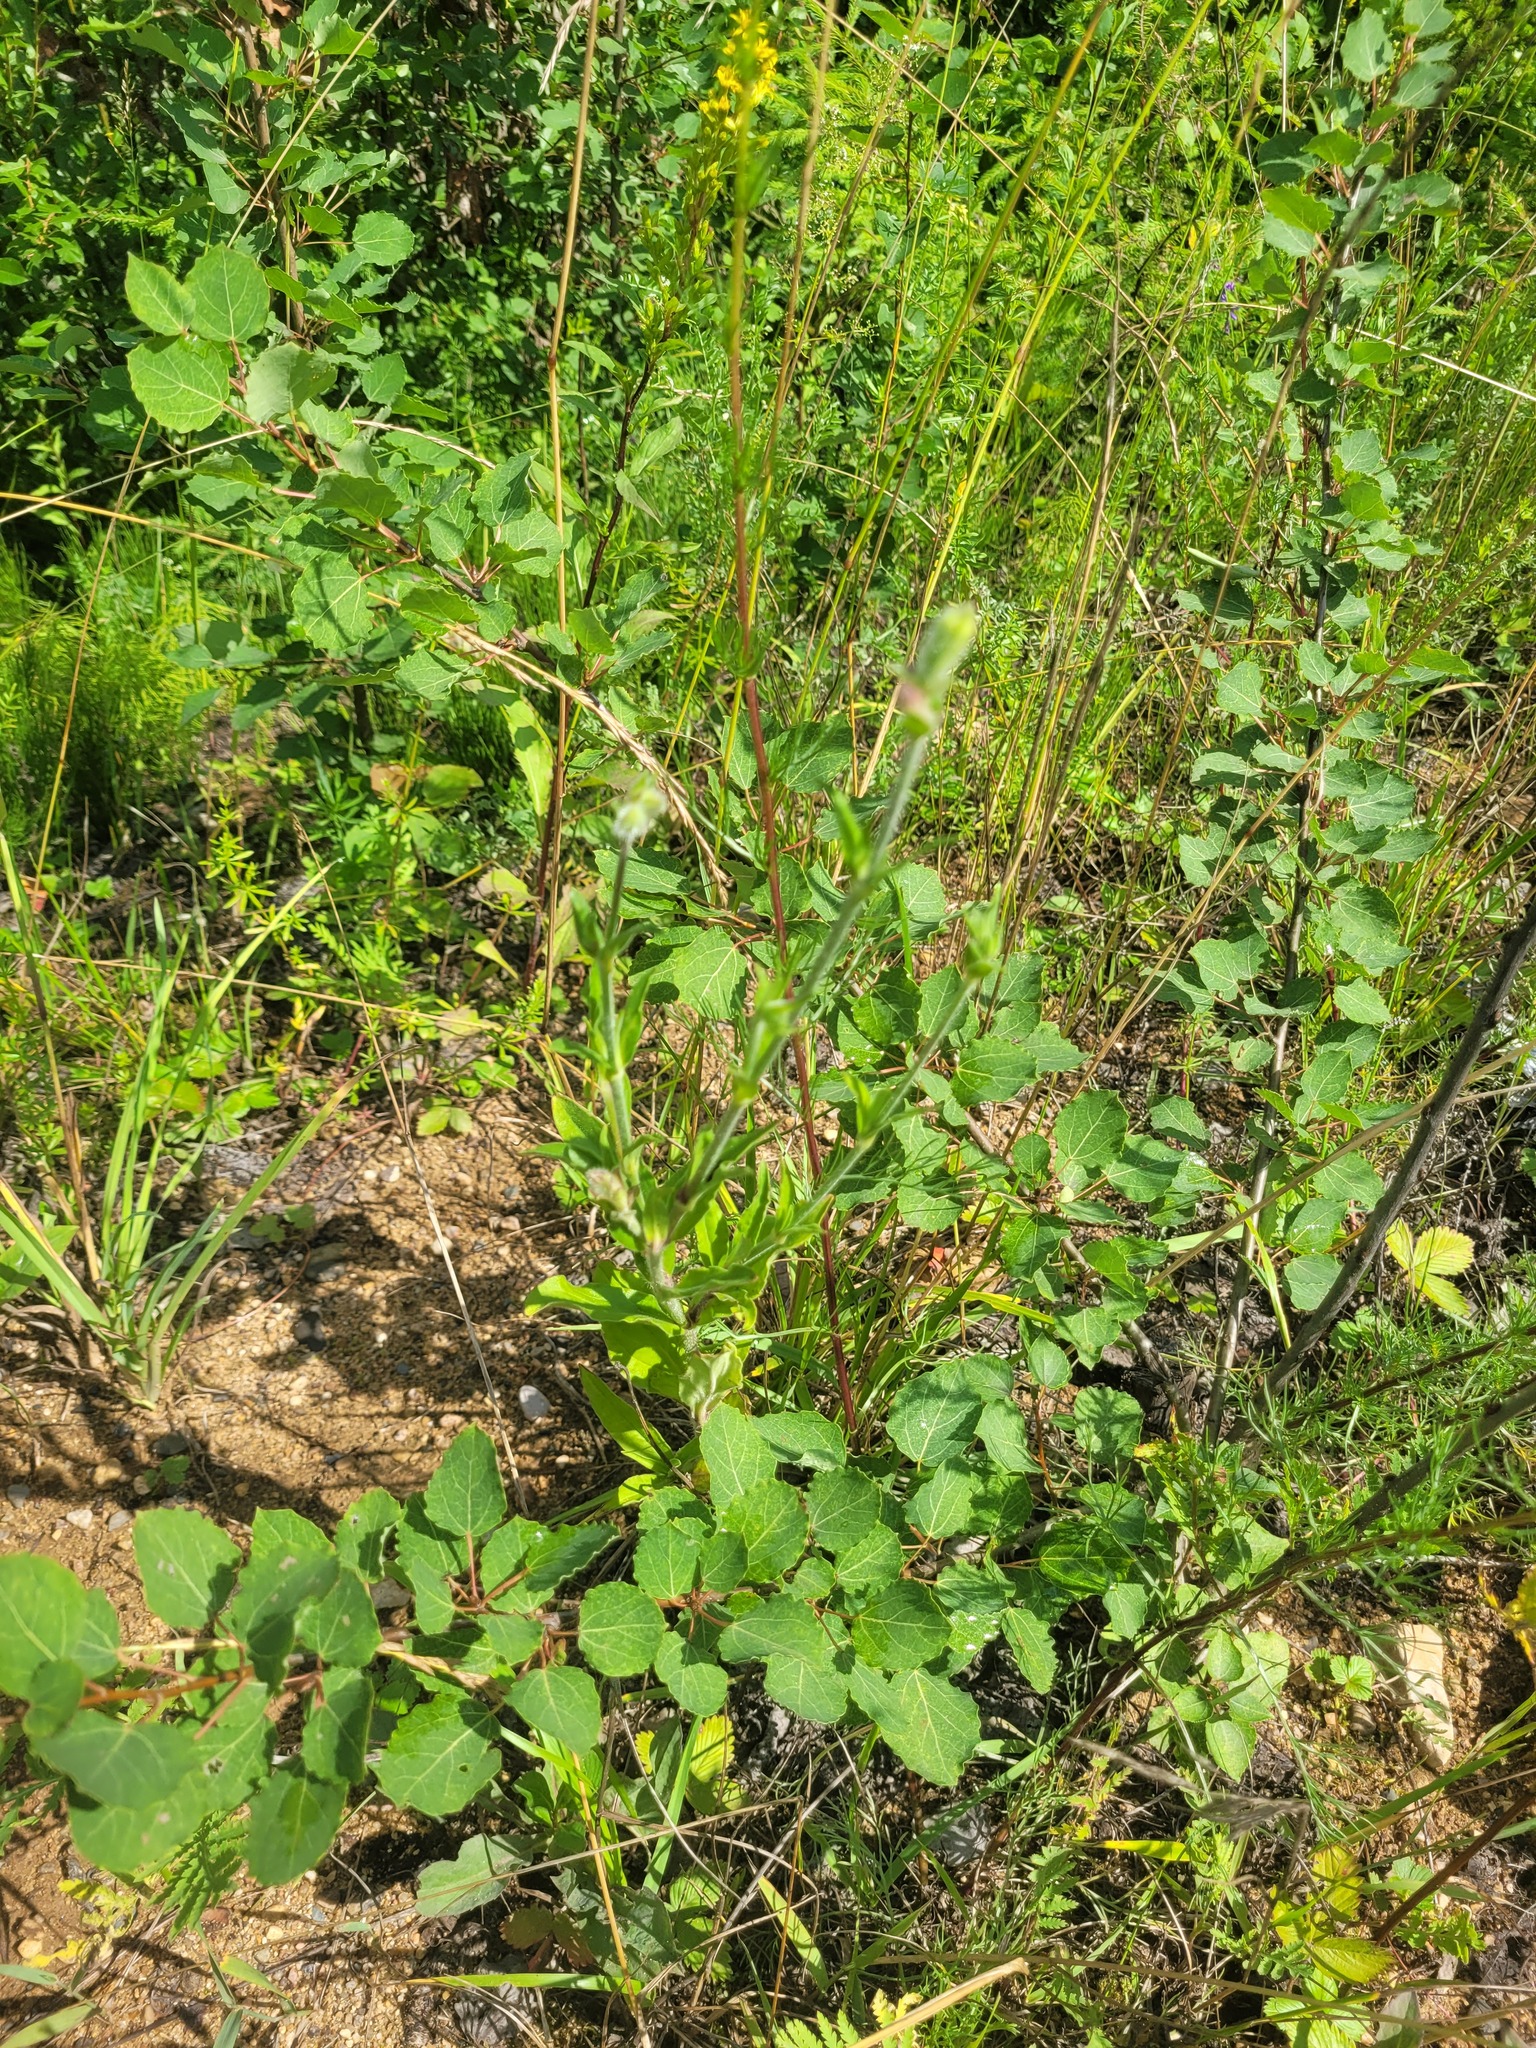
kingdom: Plantae
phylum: Tracheophyta
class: Magnoliopsida
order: Caryophyllales
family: Caryophyllaceae
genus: Silene
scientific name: Silene latifolia
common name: White campion
